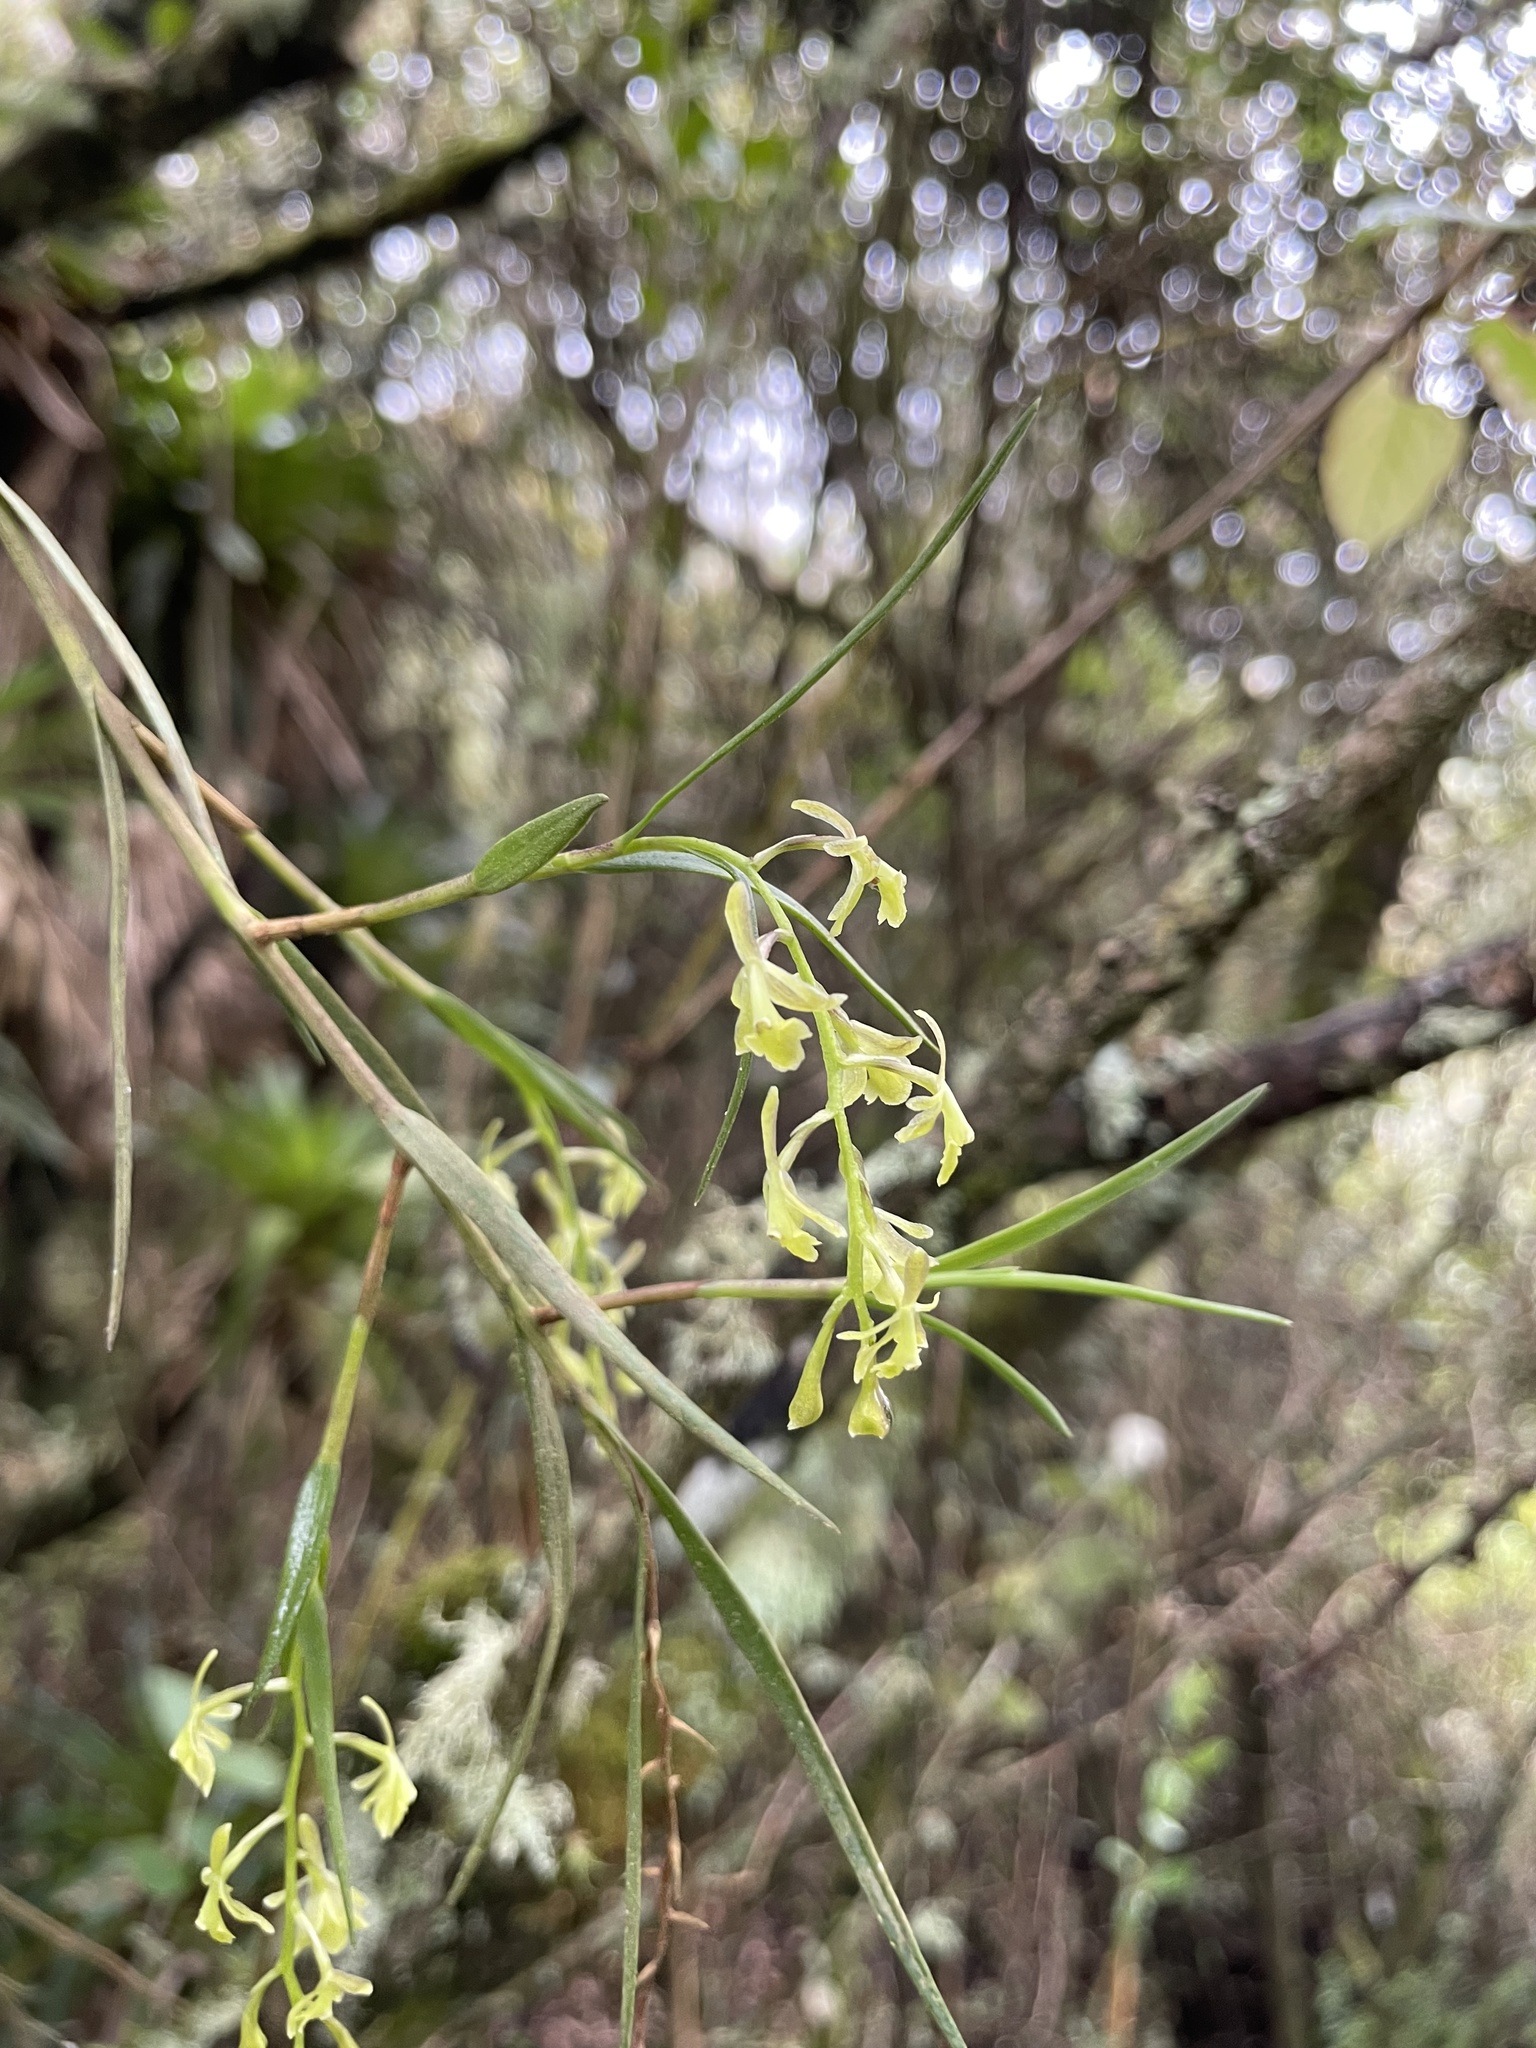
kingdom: Plantae
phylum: Tracheophyta
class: Liliopsida
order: Asparagales
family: Orchidaceae
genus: Epidendrum
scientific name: Epidendrum angustissimum
